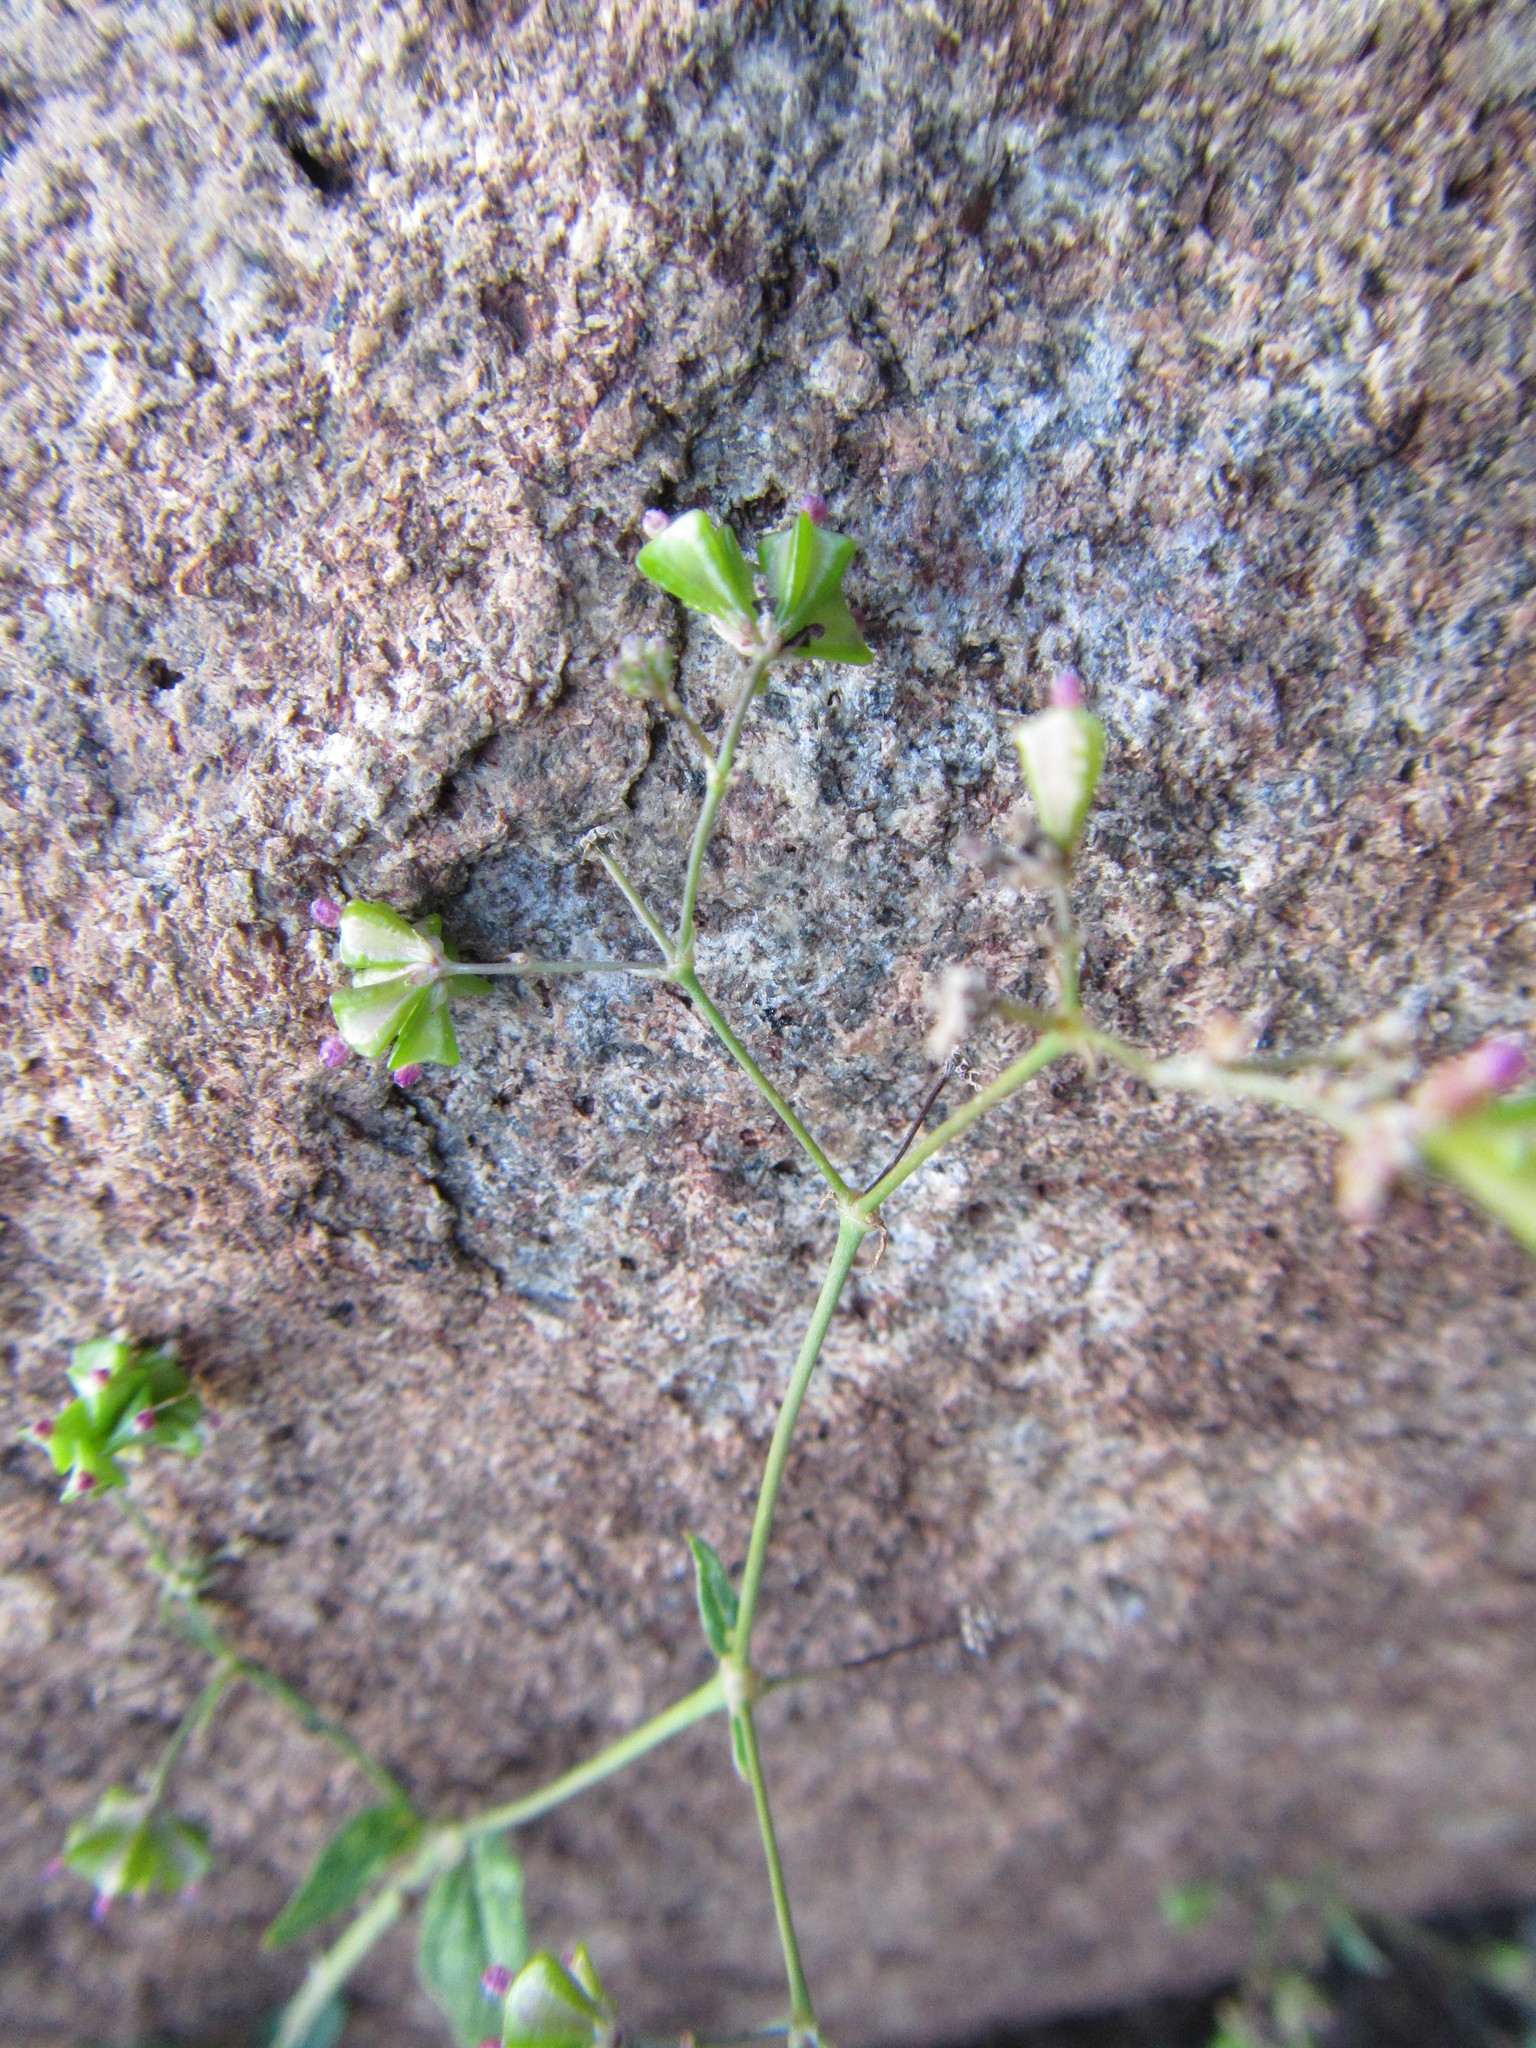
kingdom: Plantae
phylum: Tracheophyta
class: Magnoliopsida
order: Caryophyllales
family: Nyctaginaceae
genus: Boerhavia
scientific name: Boerhavia cordobensis
